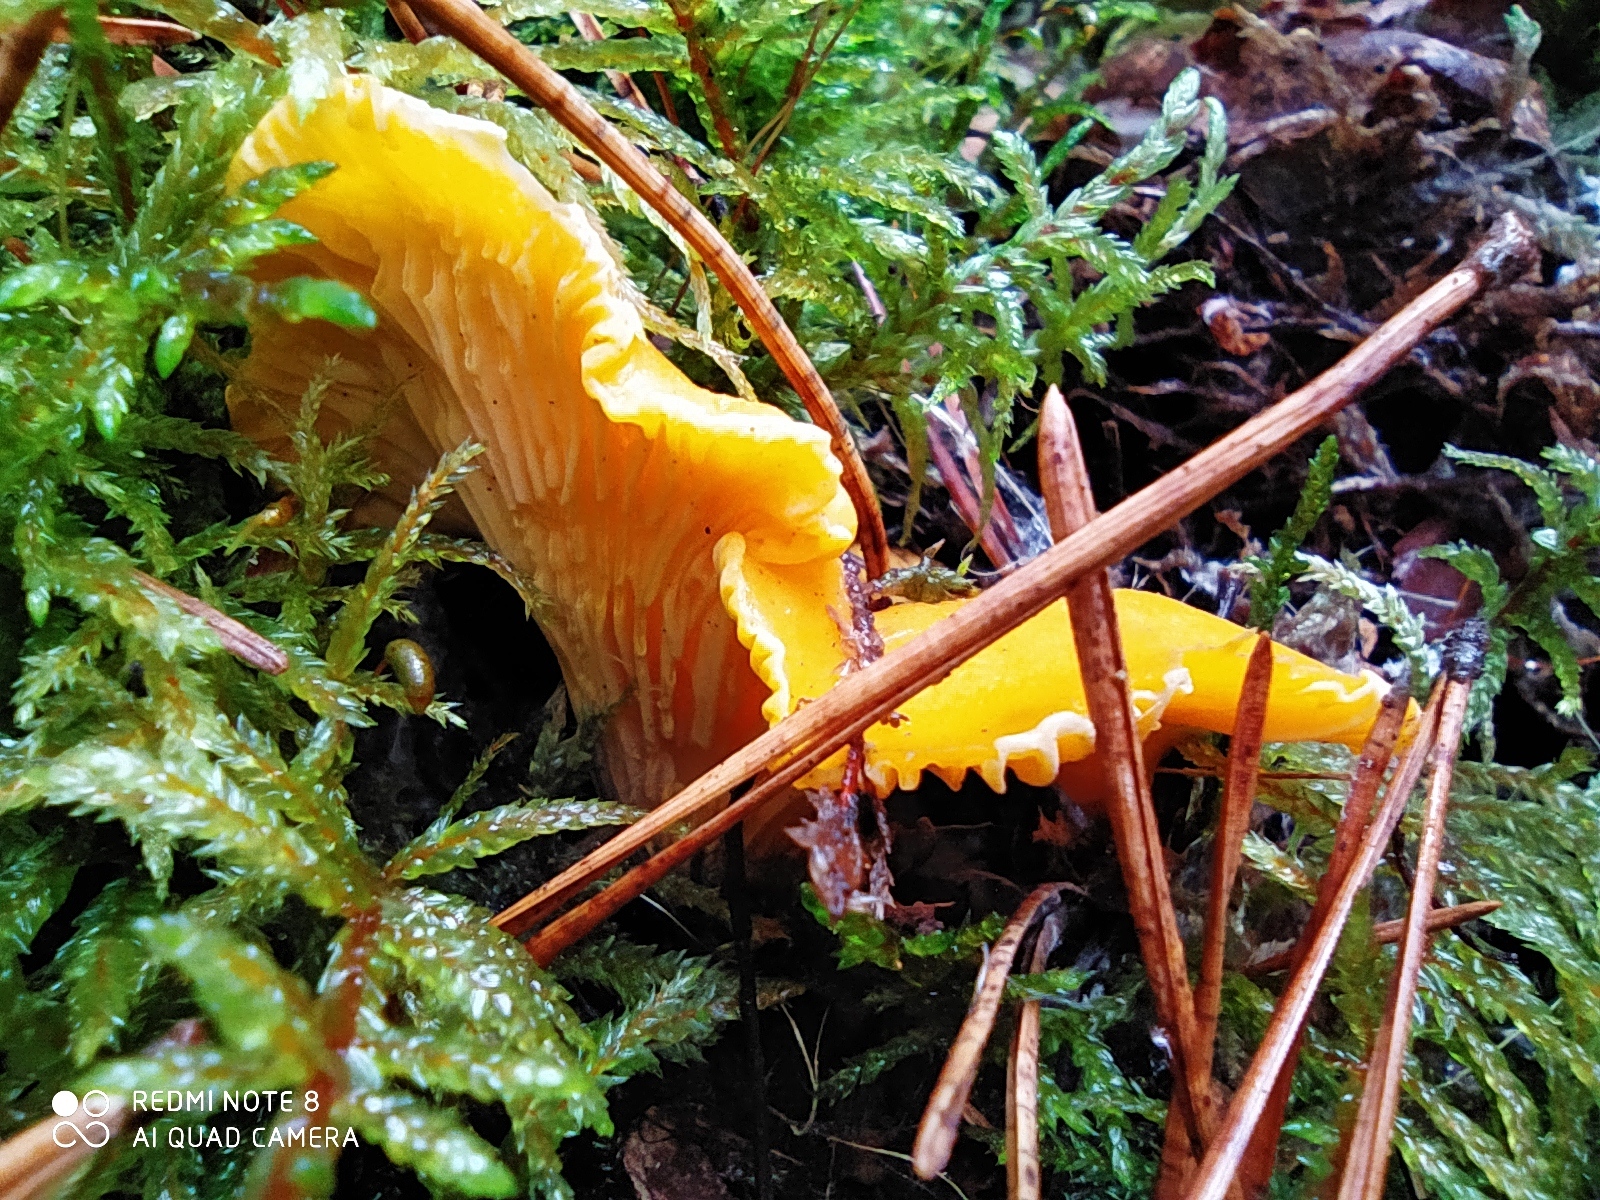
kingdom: Fungi
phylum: Basidiomycota
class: Agaricomycetes
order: Cantharellales
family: Hydnaceae
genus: Cantharellus
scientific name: Cantharellus cibarius
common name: Chanterelle
